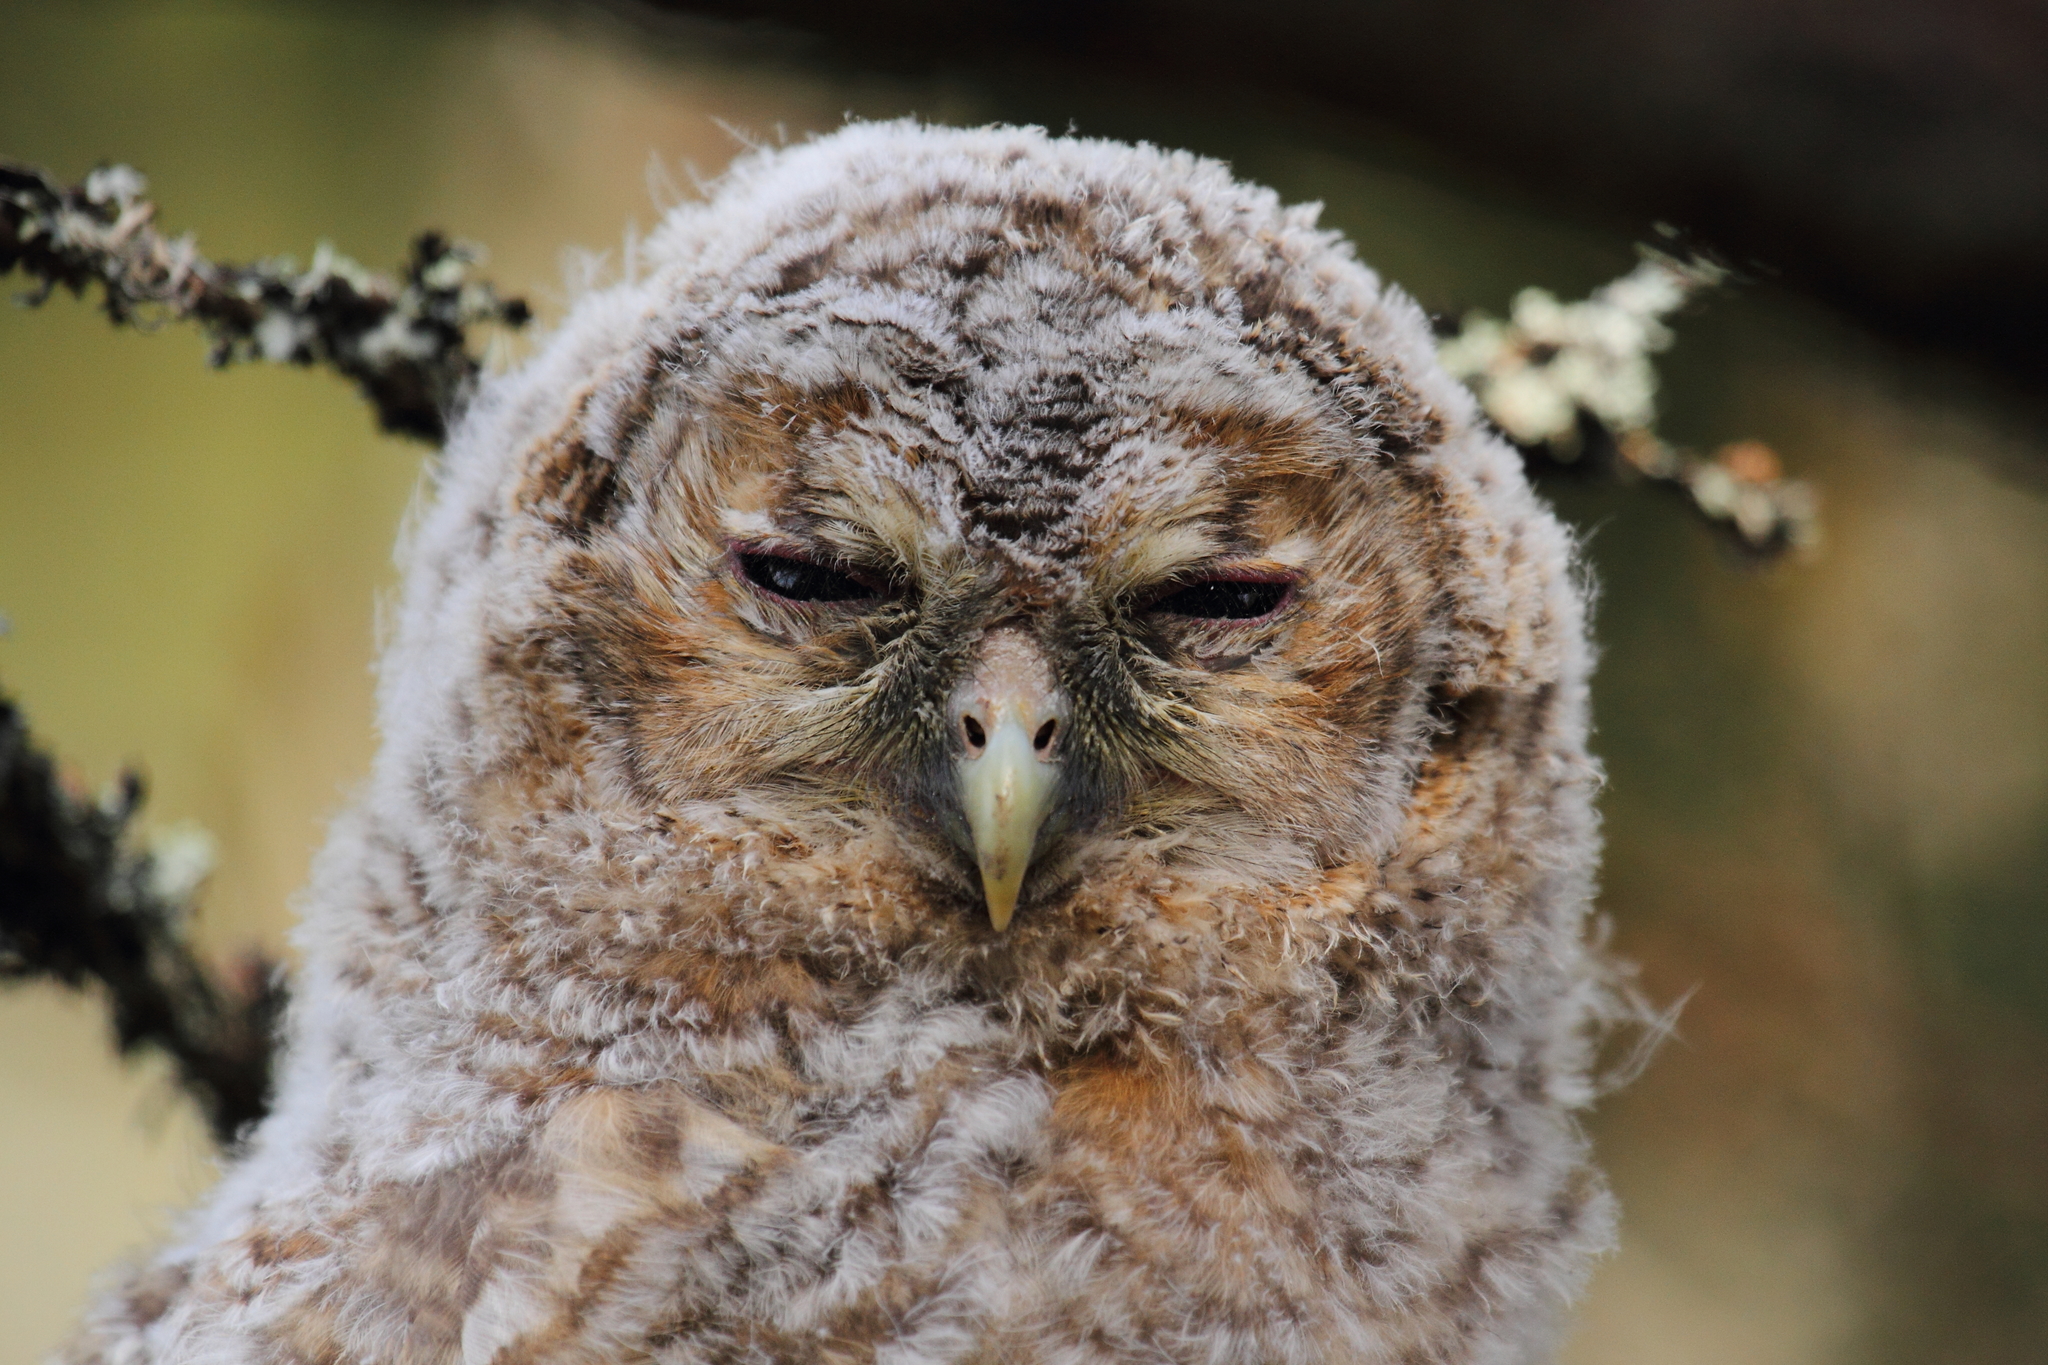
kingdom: Animalia
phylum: Chordata
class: Aves
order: Strigiformes
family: Strigidae
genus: Strix
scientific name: Strix aluco
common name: Tawny owl
